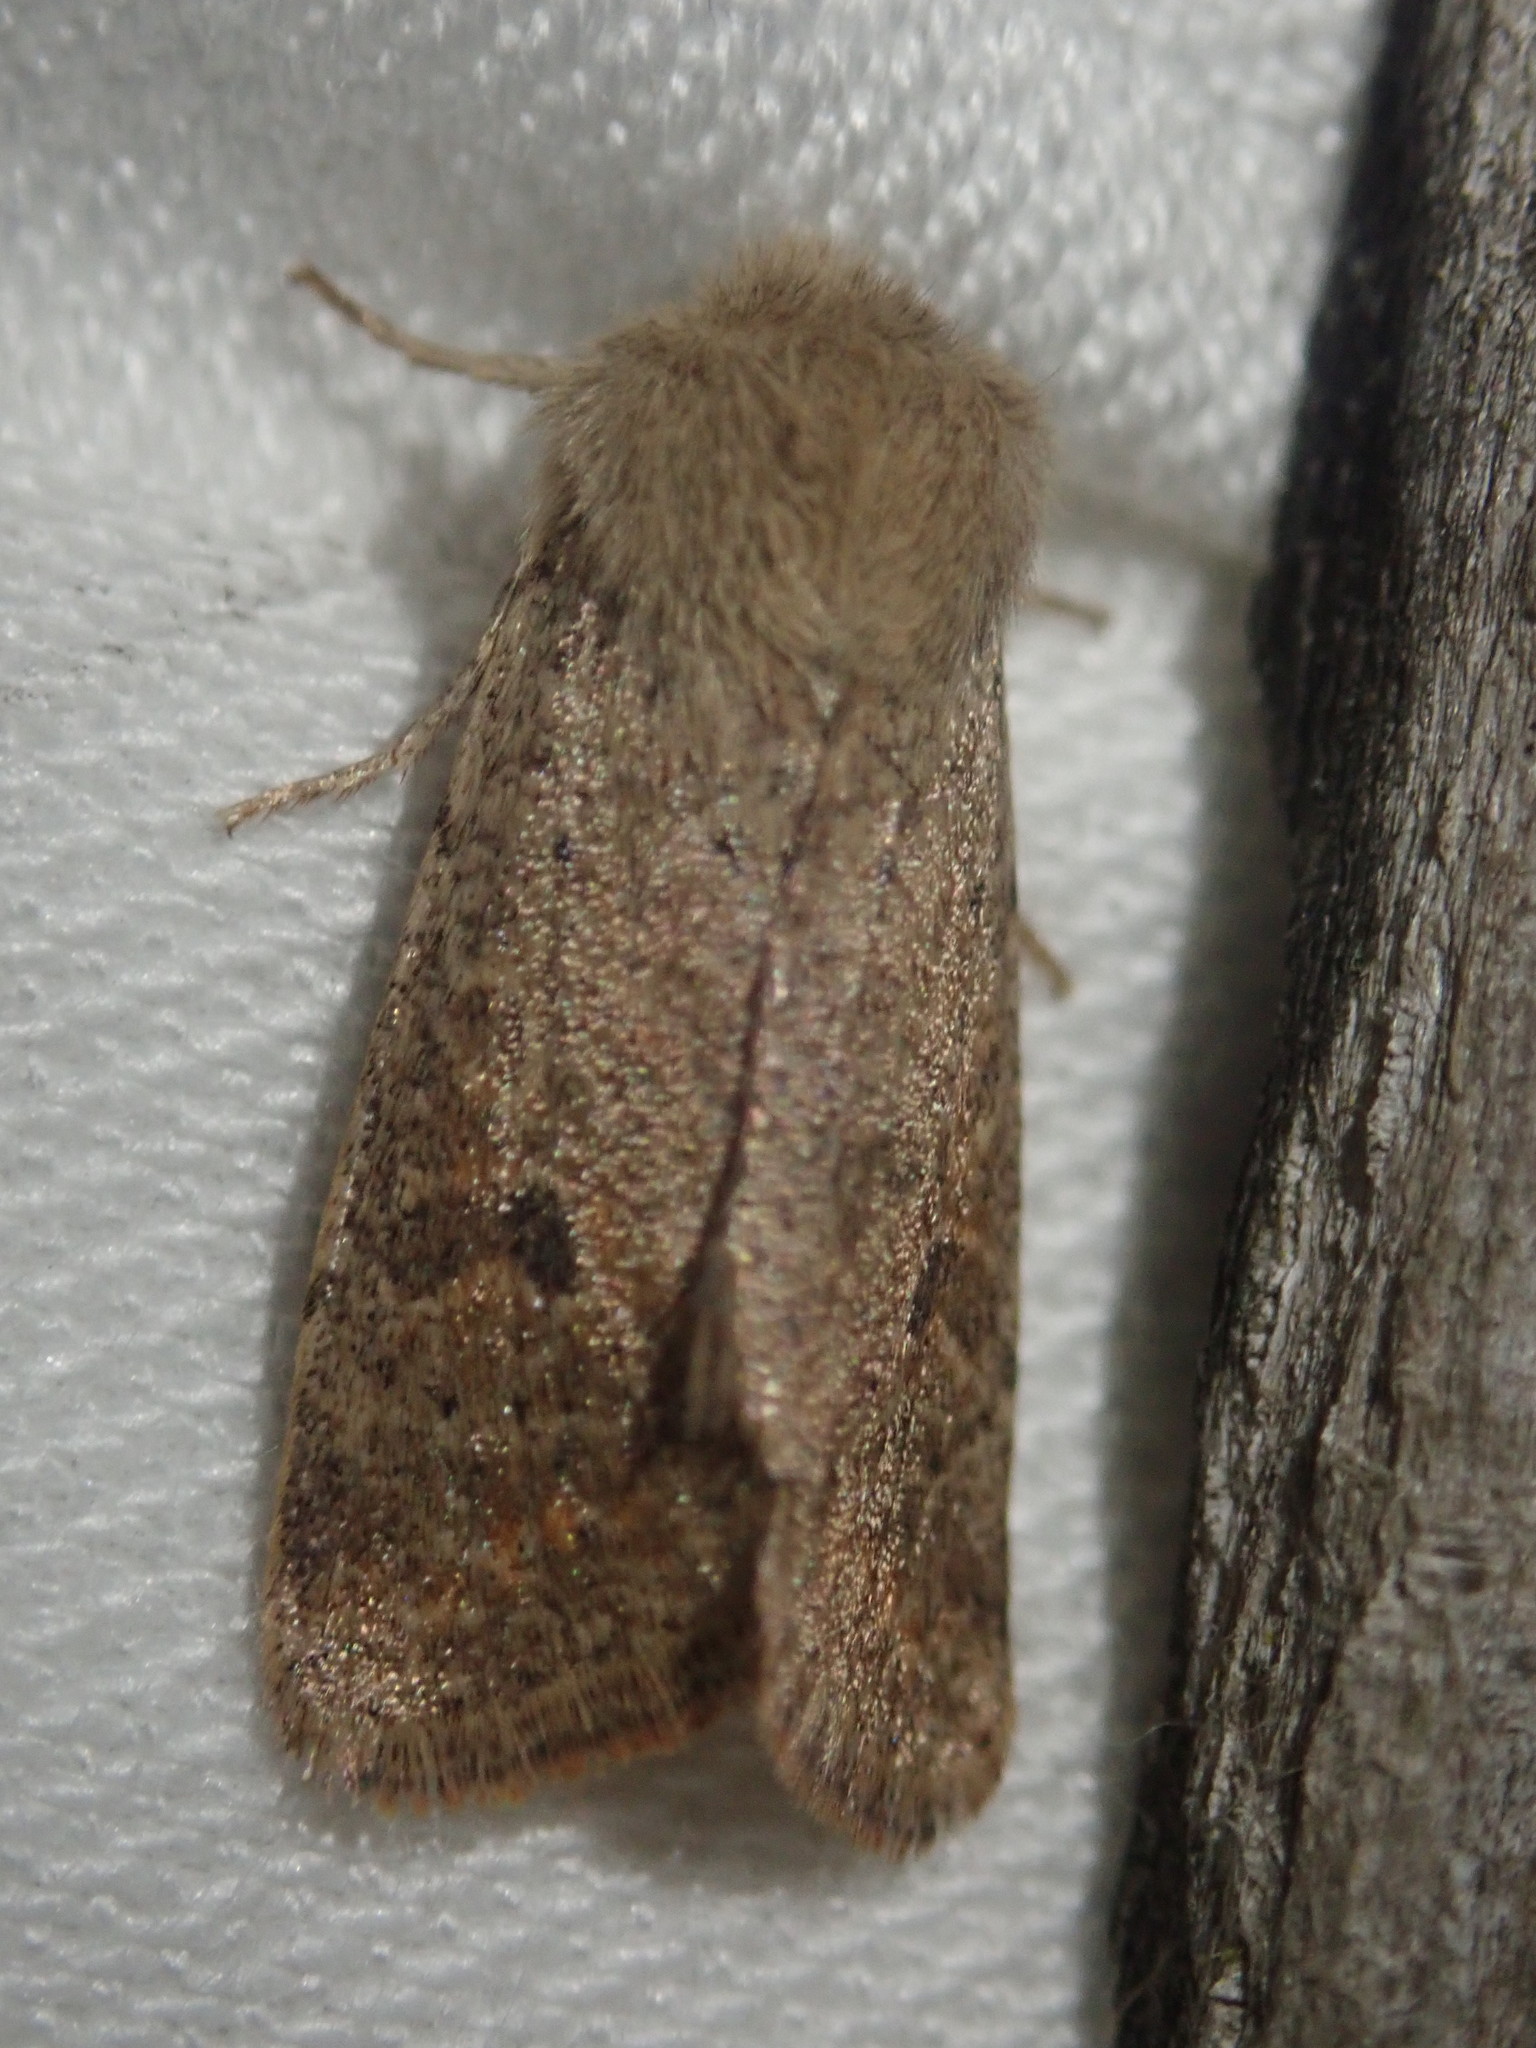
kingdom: Animalia
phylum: Arthropoda
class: Insecta
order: Lepidoptera
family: Noctuidae
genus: Orthosia
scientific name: Orthosia cruda
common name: Small quaker
